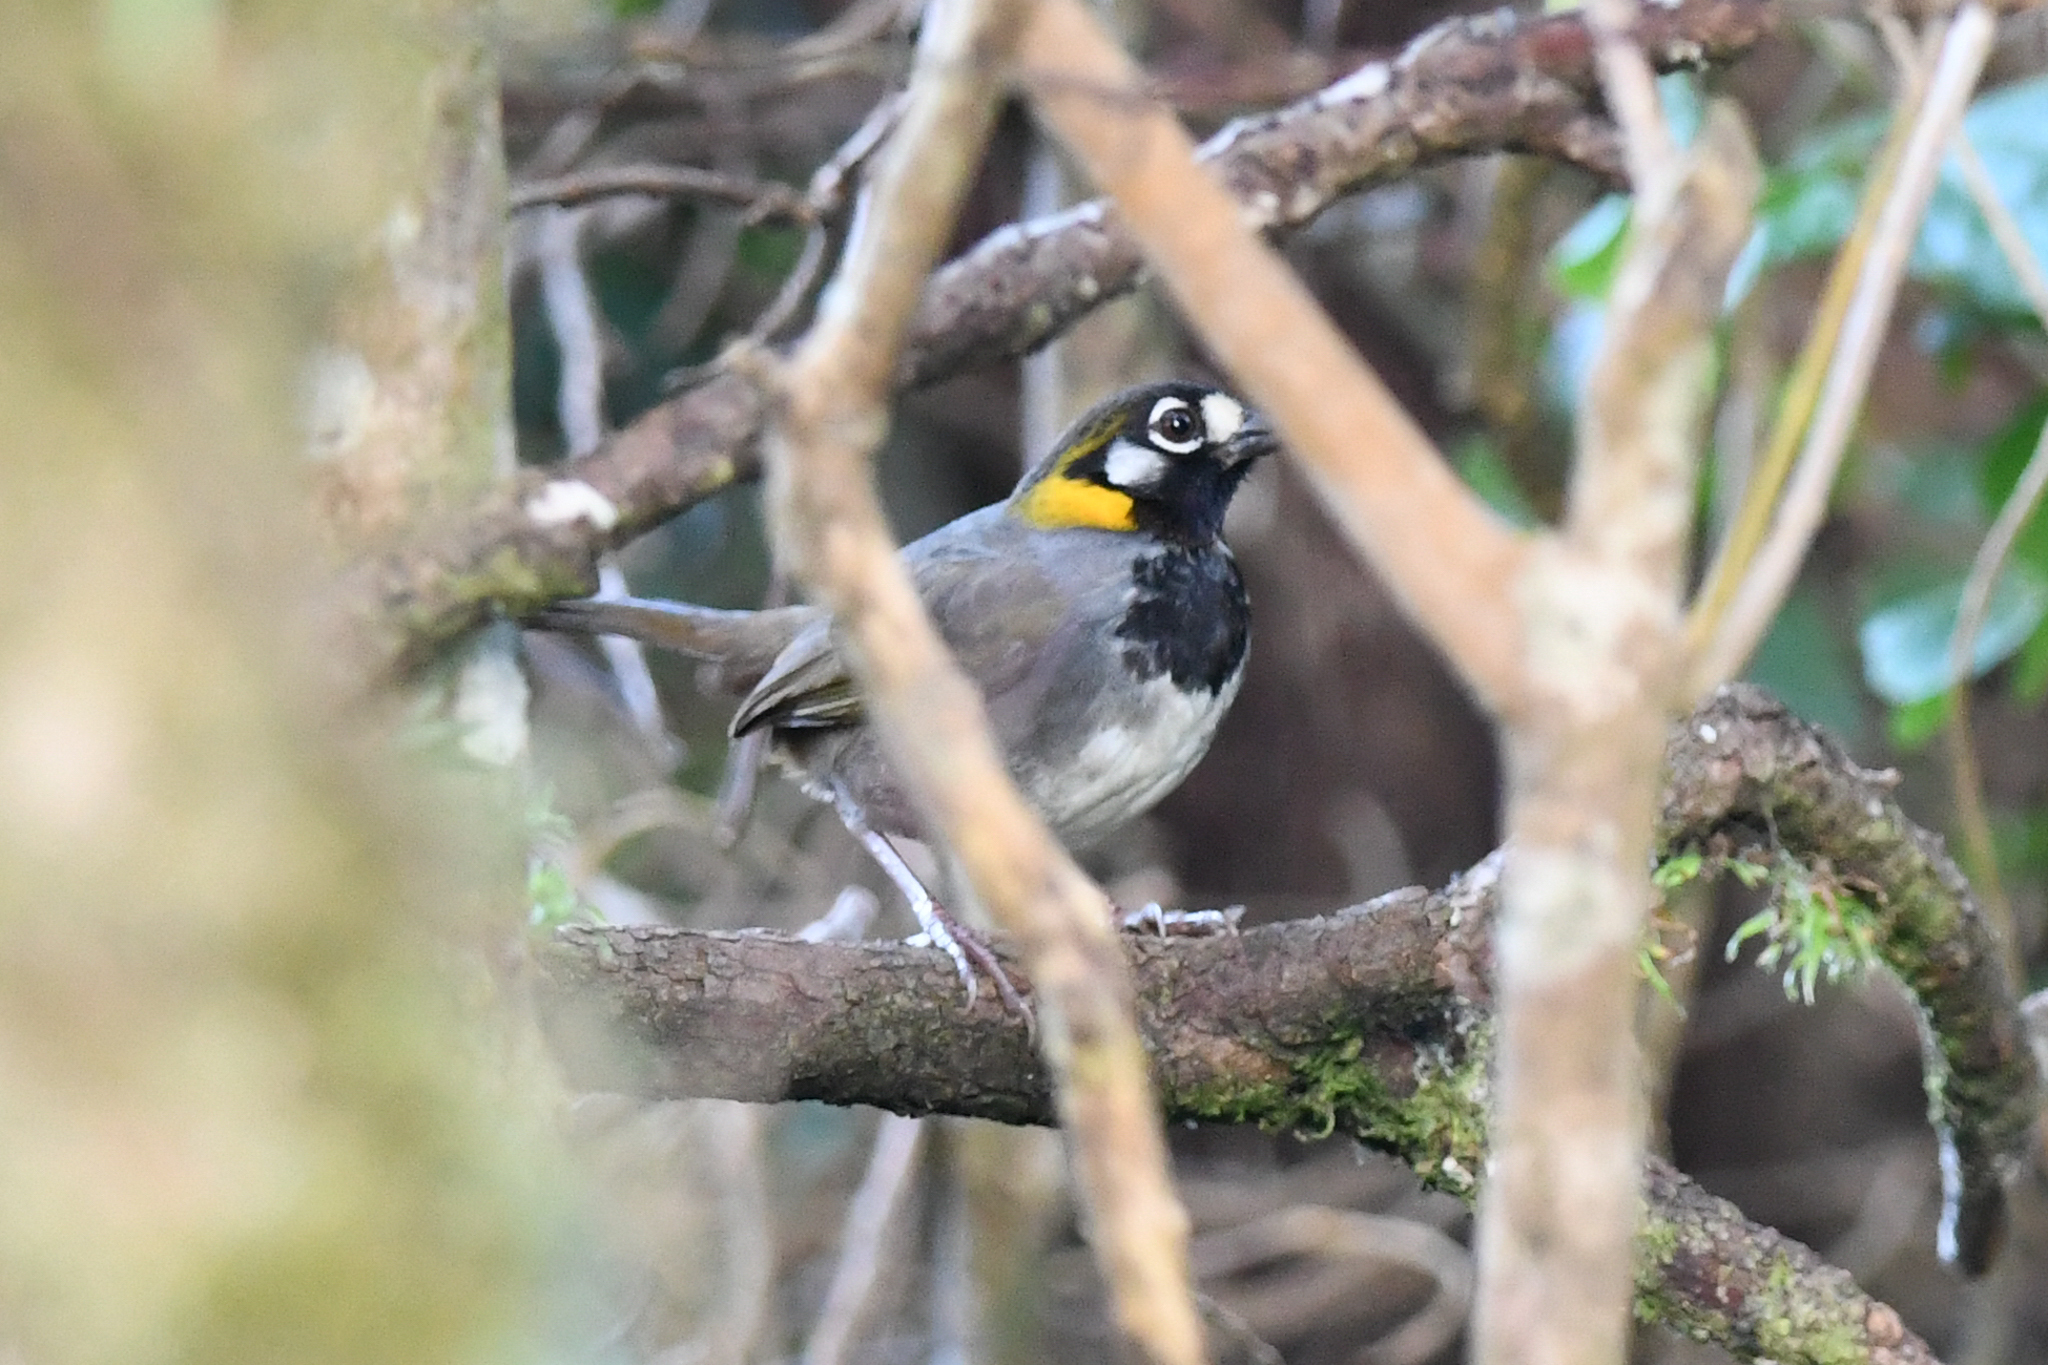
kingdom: Animalia
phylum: Chordata
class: Aves
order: Passeriformes
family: Passerellidae
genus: Melozone
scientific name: Melozone leucotis
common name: White-eared ground-sparrow
